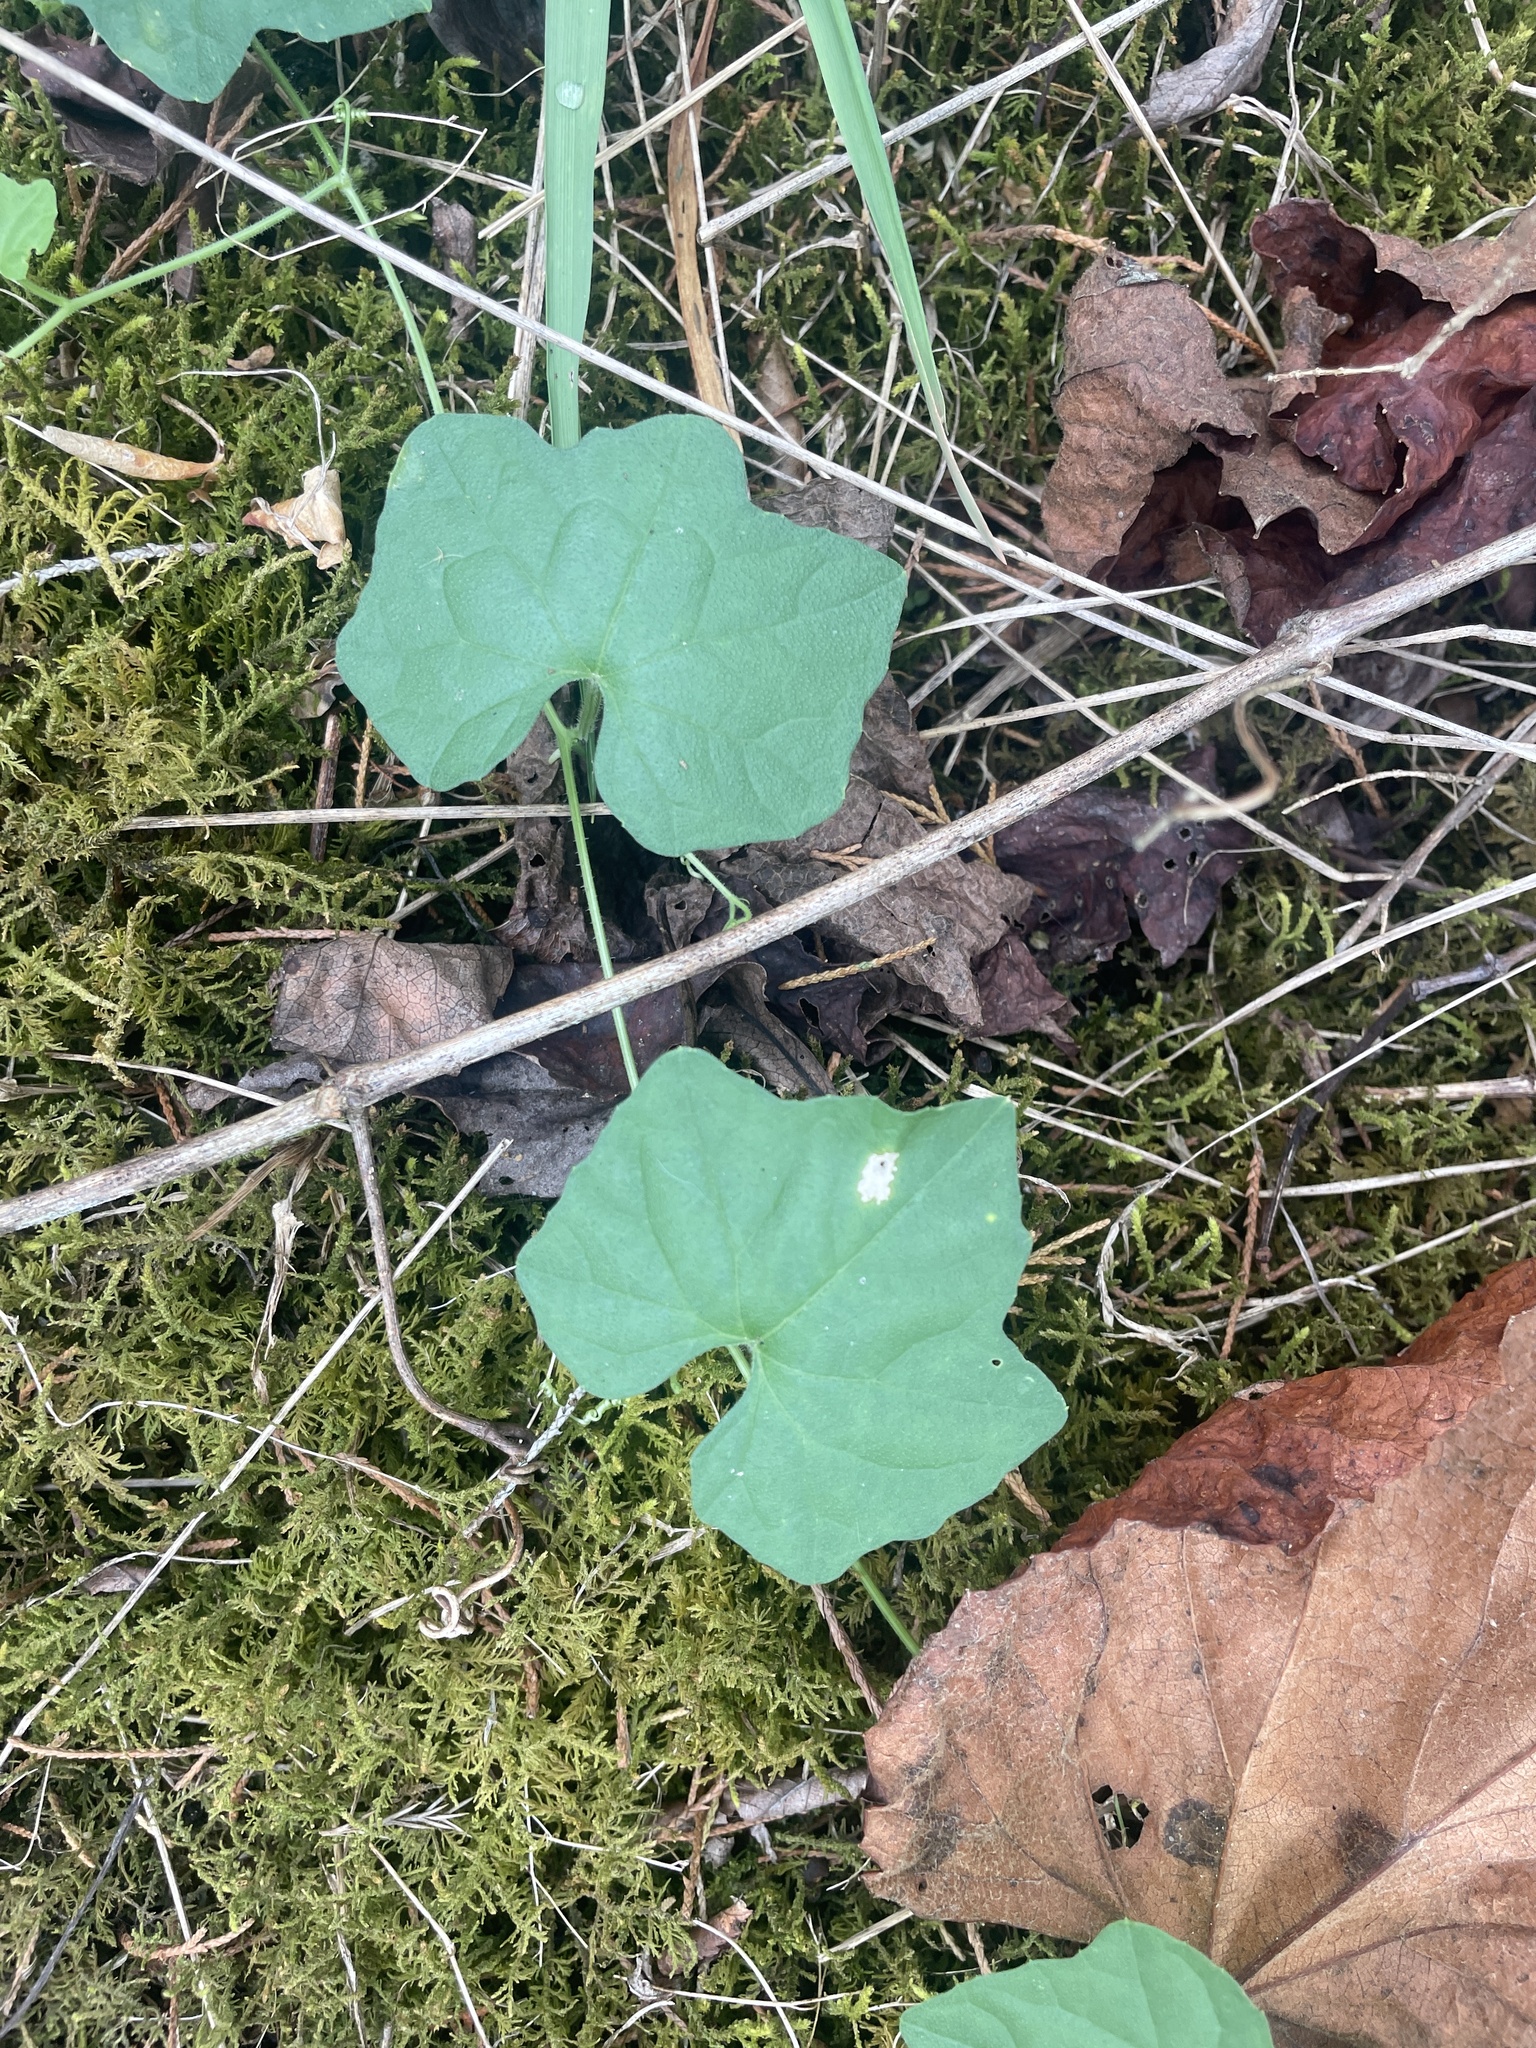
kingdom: Plantae
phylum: Tracheophyta
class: Magnoliopsida
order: Cucurbitales
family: Cucurbitaceae
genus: Melothria
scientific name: Melothria pendula
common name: Creeping-cucumber
